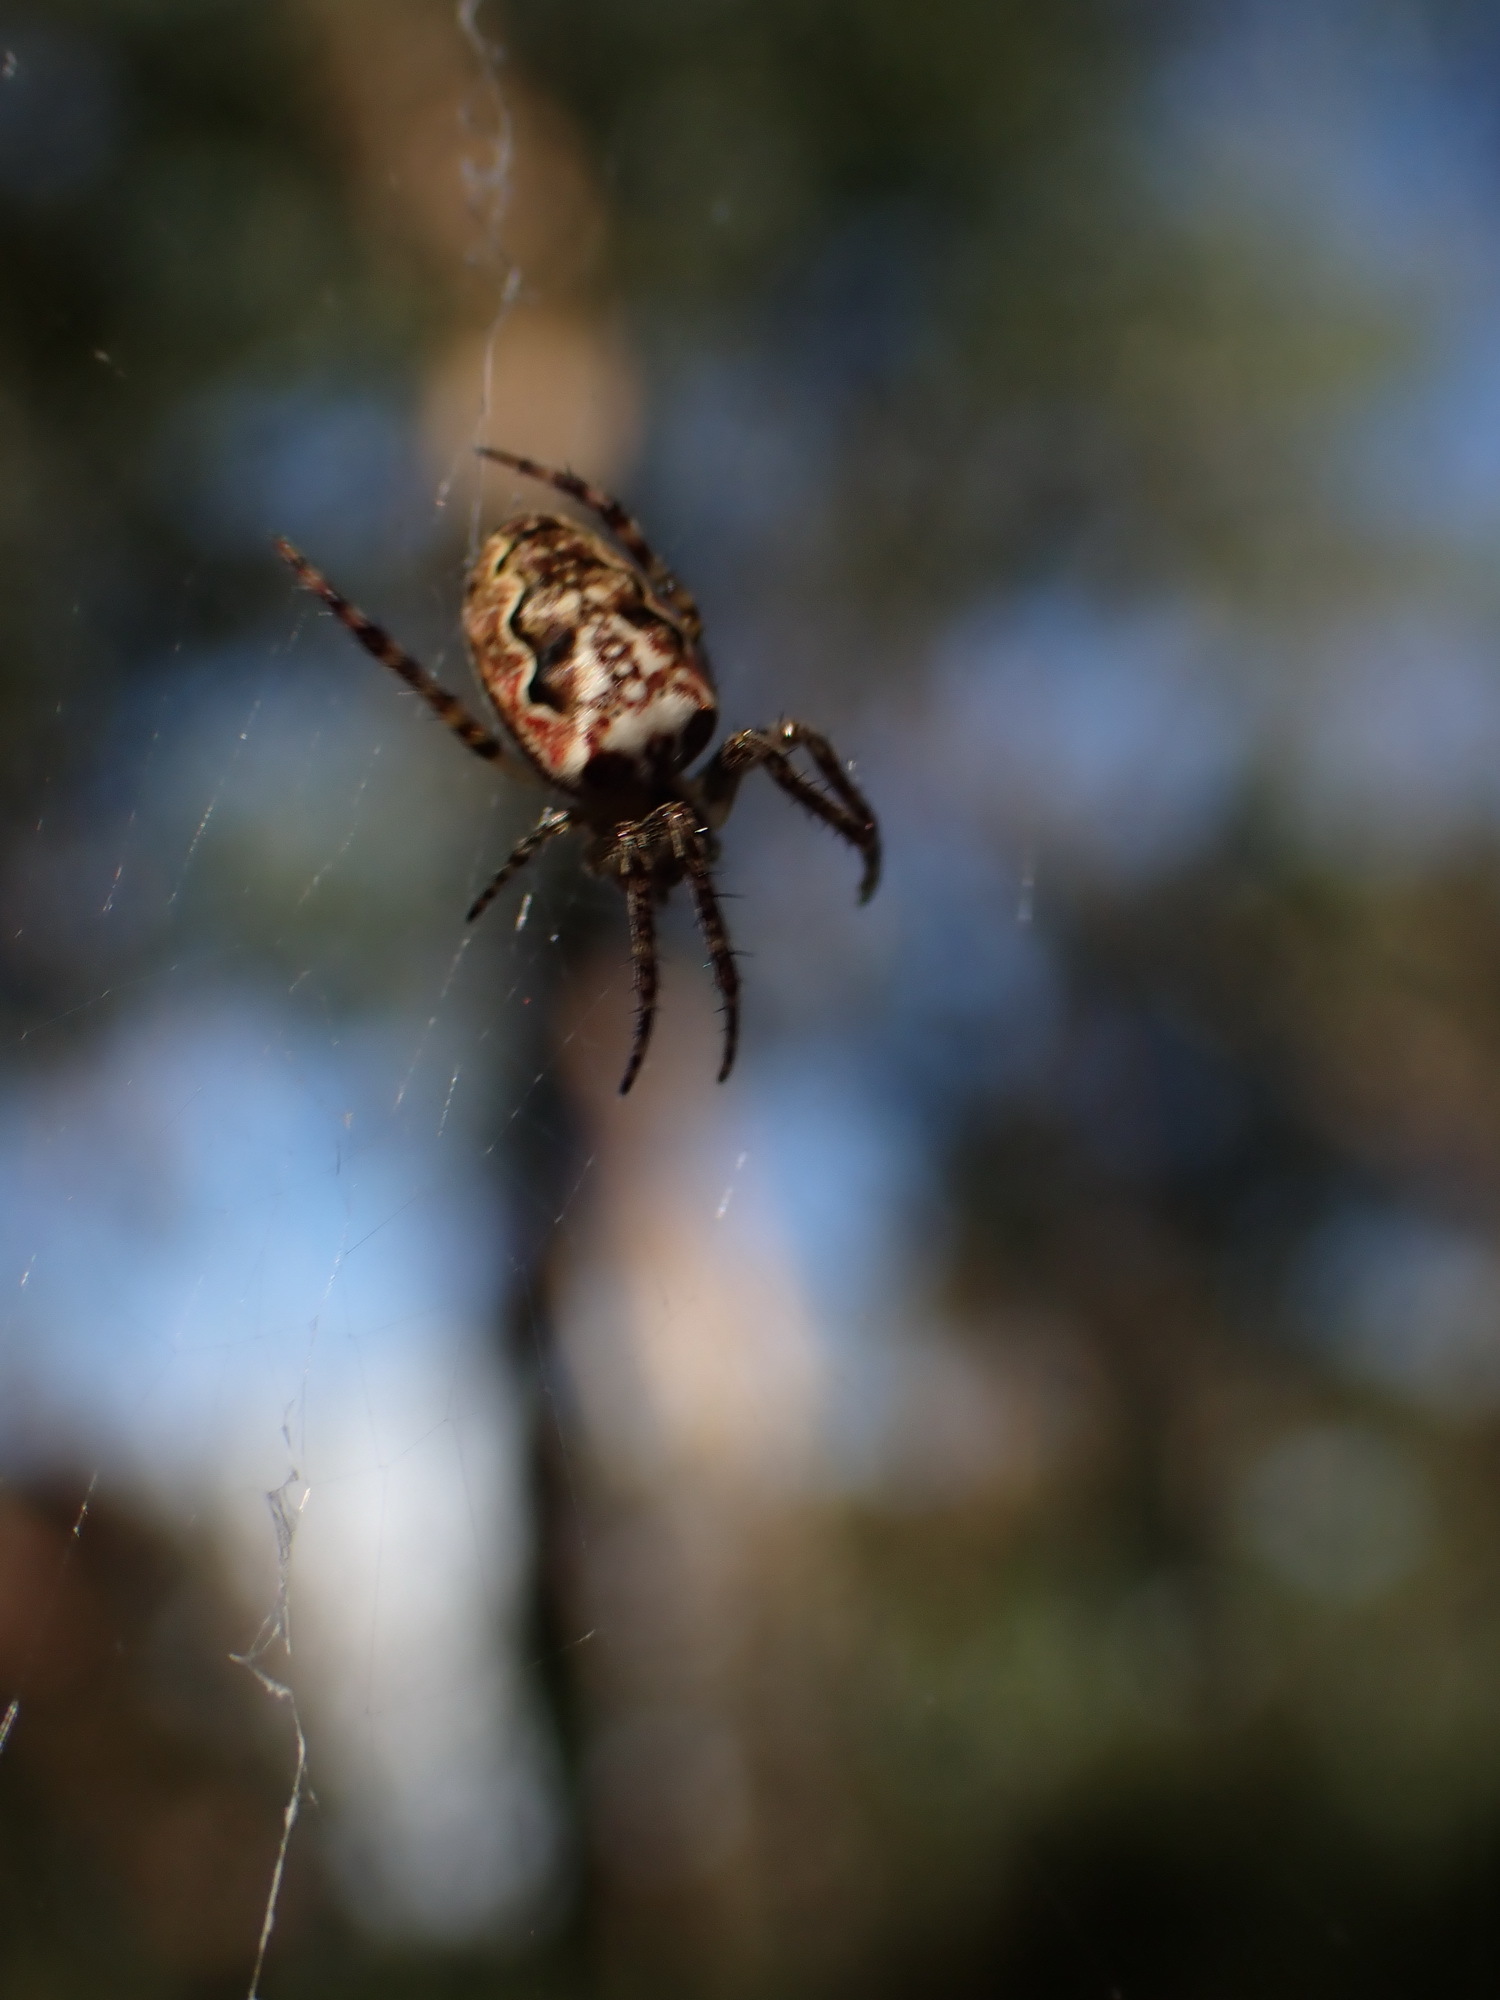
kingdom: Animalia
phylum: Arthropoda
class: Arachnida
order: Araneae
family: Araneidae
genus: Plebs
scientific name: Plebs eburnus
